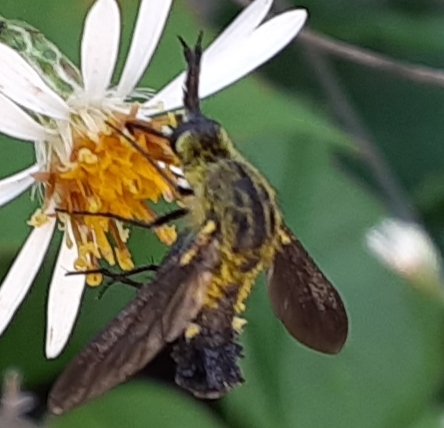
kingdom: Animalia
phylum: Arthropoda
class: Insecta
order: Diptera
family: Bombyliidae
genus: Lepidophora
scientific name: Lepidophora lutea
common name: Hunchback bee fly
